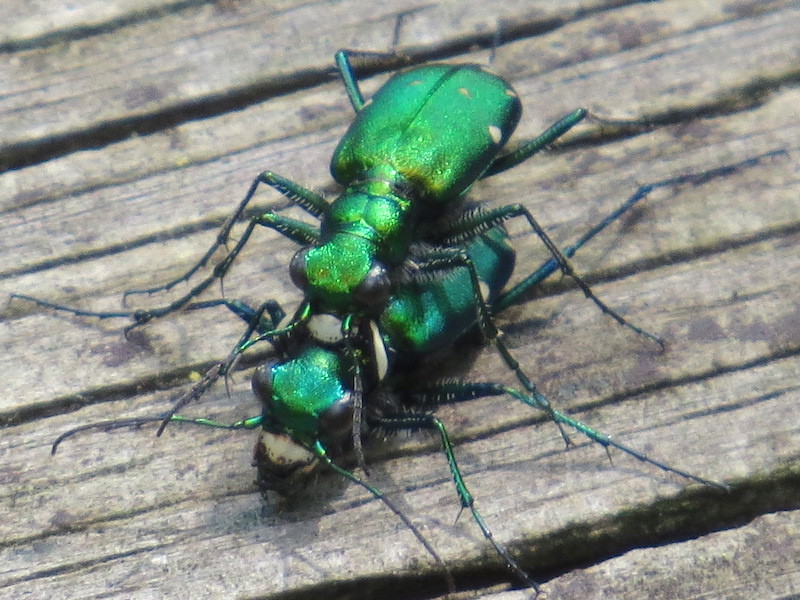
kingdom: Animalia
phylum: Arthropoda
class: Insecta
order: Coleoptera
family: Carabidae
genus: Cicindela
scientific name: Cicindela sexguttata
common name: Six-spotted tiger beetle
